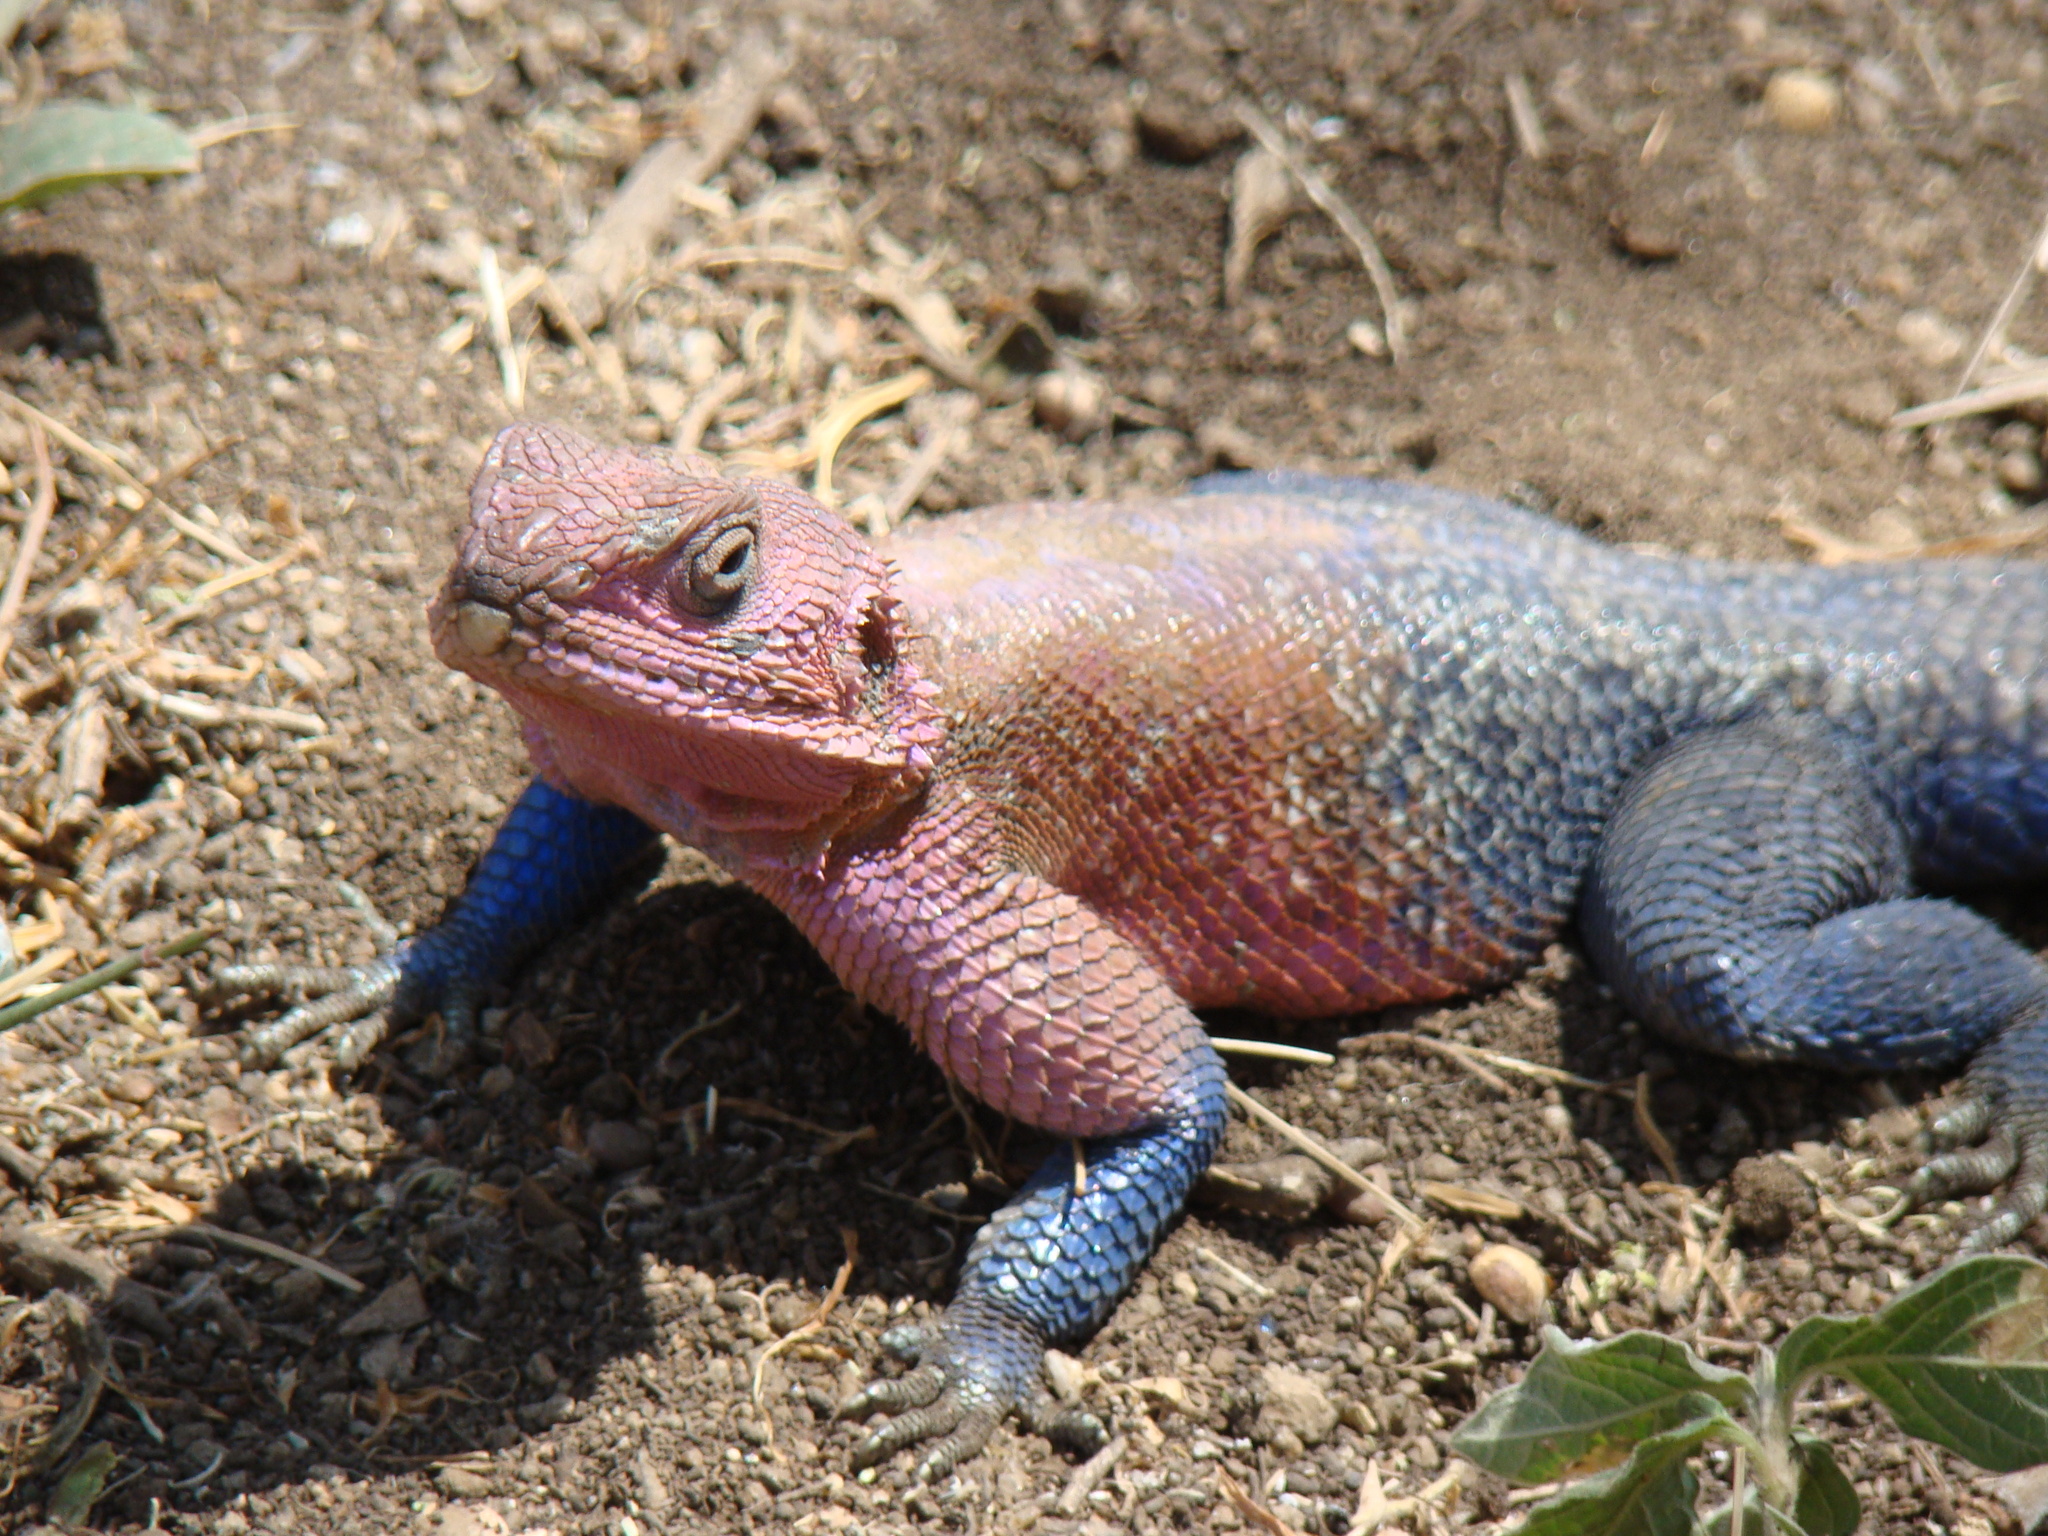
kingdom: Animalia
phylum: Chordata
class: Squamata
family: Agamidae
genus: Agama
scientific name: Agama mwanzae
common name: Mwanza flat-headed agama
